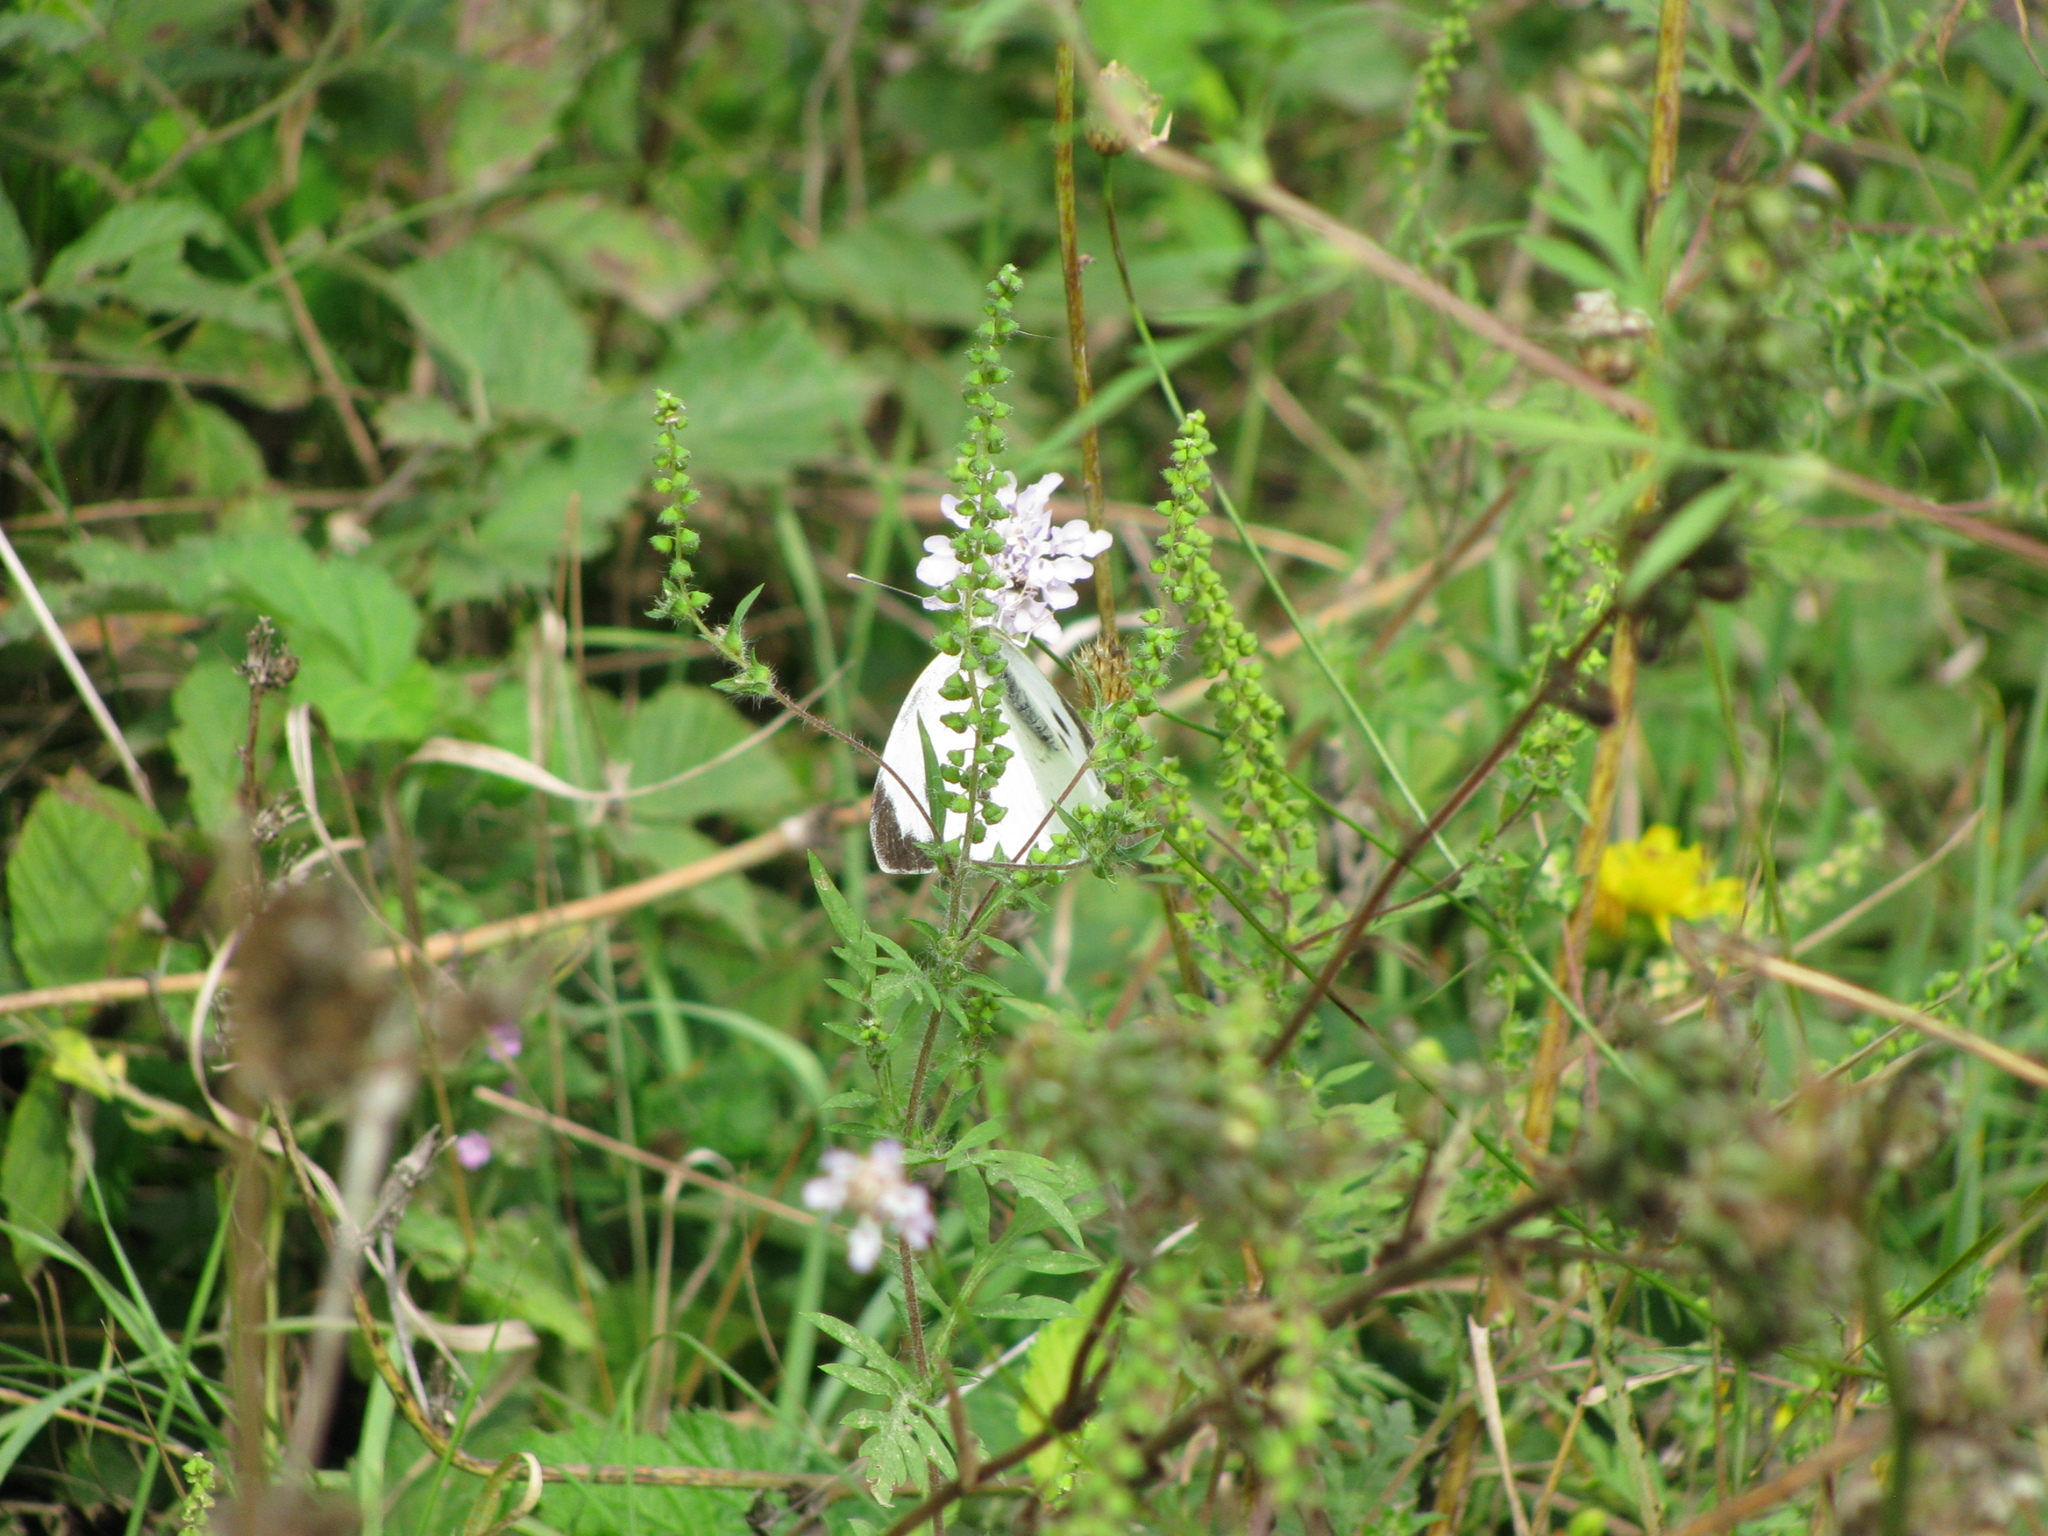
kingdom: Animalia
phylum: Arthropoda
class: Insecta
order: Lepidoptera
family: Pieridae
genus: Pieris
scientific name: Pieris brassicae
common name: Large white
